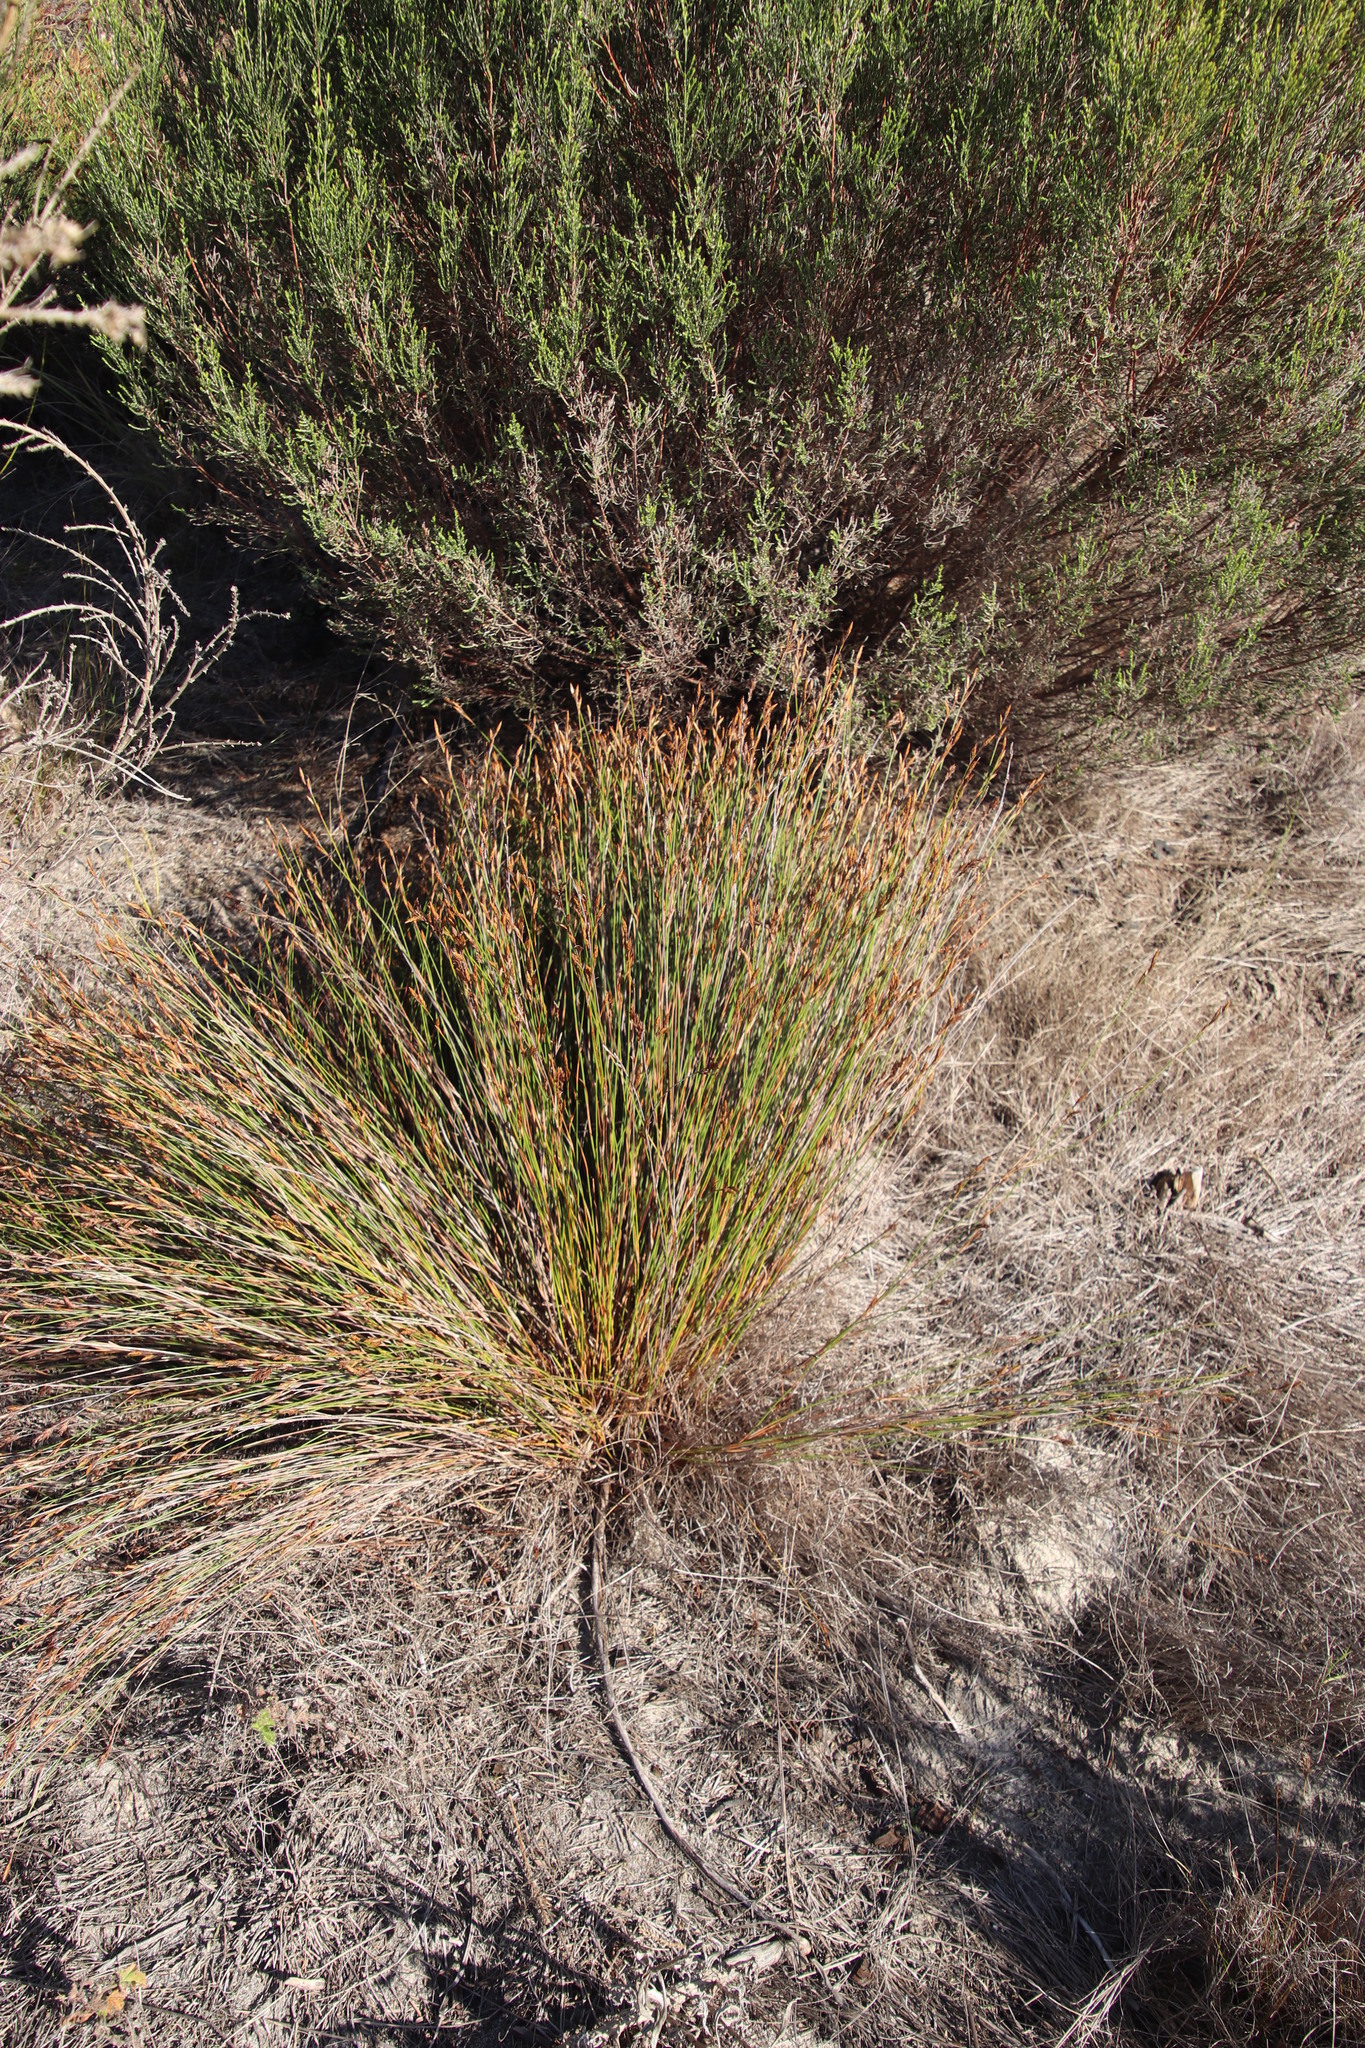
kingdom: Plantae
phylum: Tracheophyta
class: Liliopsida
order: Poales
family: Restionaceae
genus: Restio
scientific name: Restio capensis
